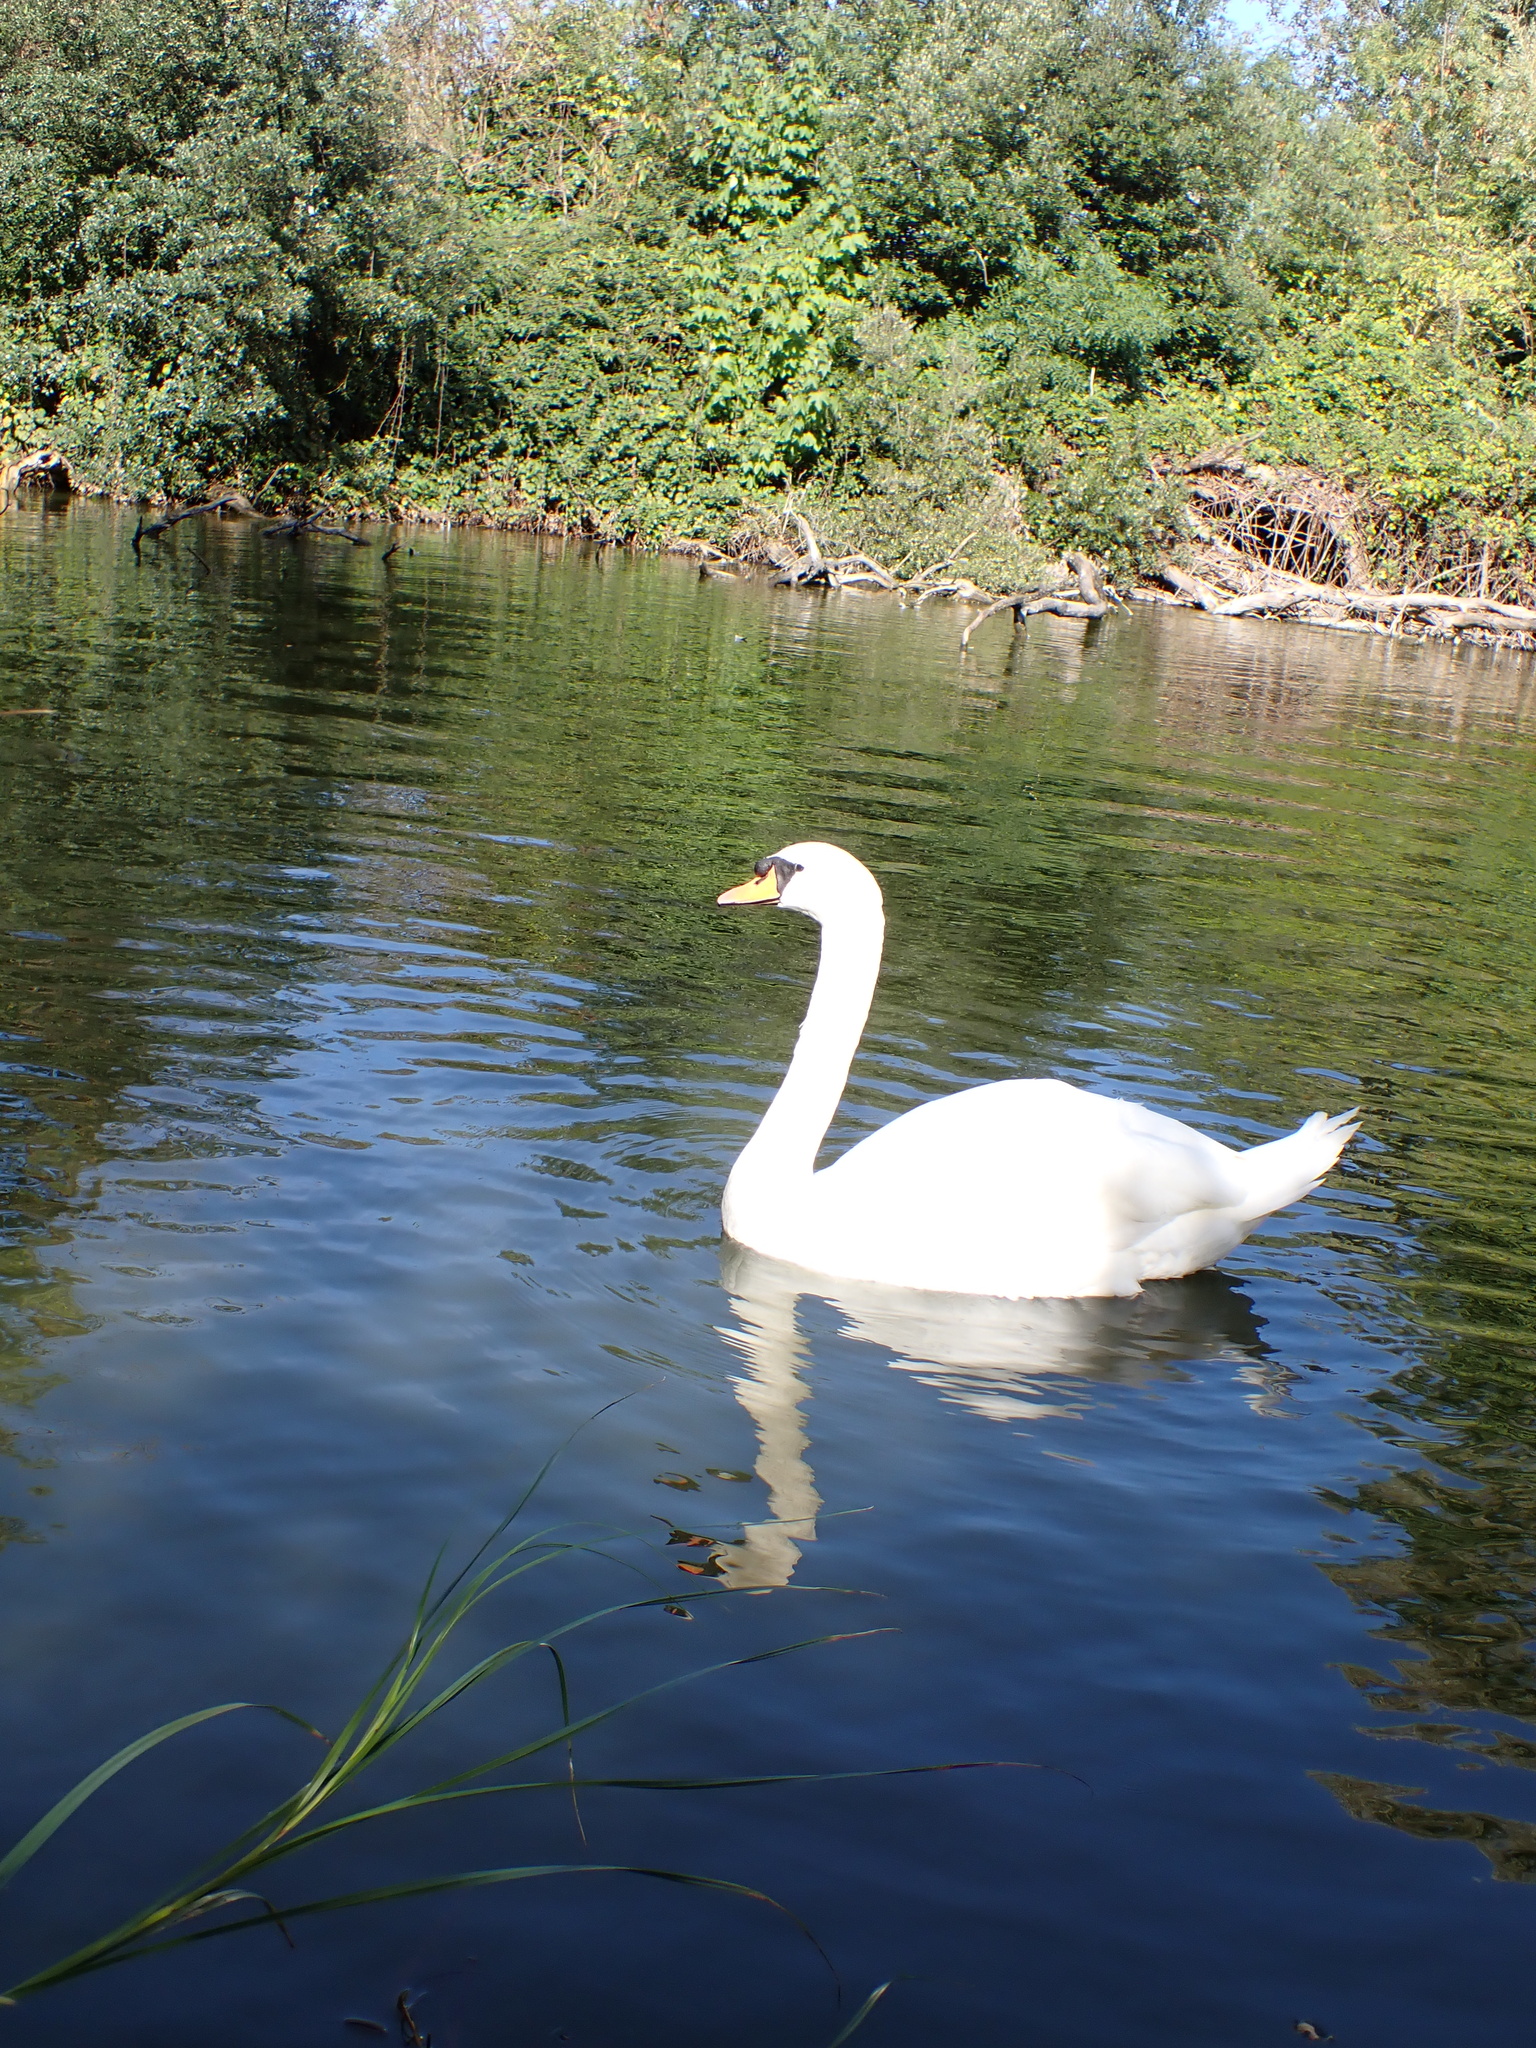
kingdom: Animalia
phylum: Chordata
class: Aves
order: Anseriformes
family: Anatidae
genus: Cygnus
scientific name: Cygnus olor
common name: Mute swan
